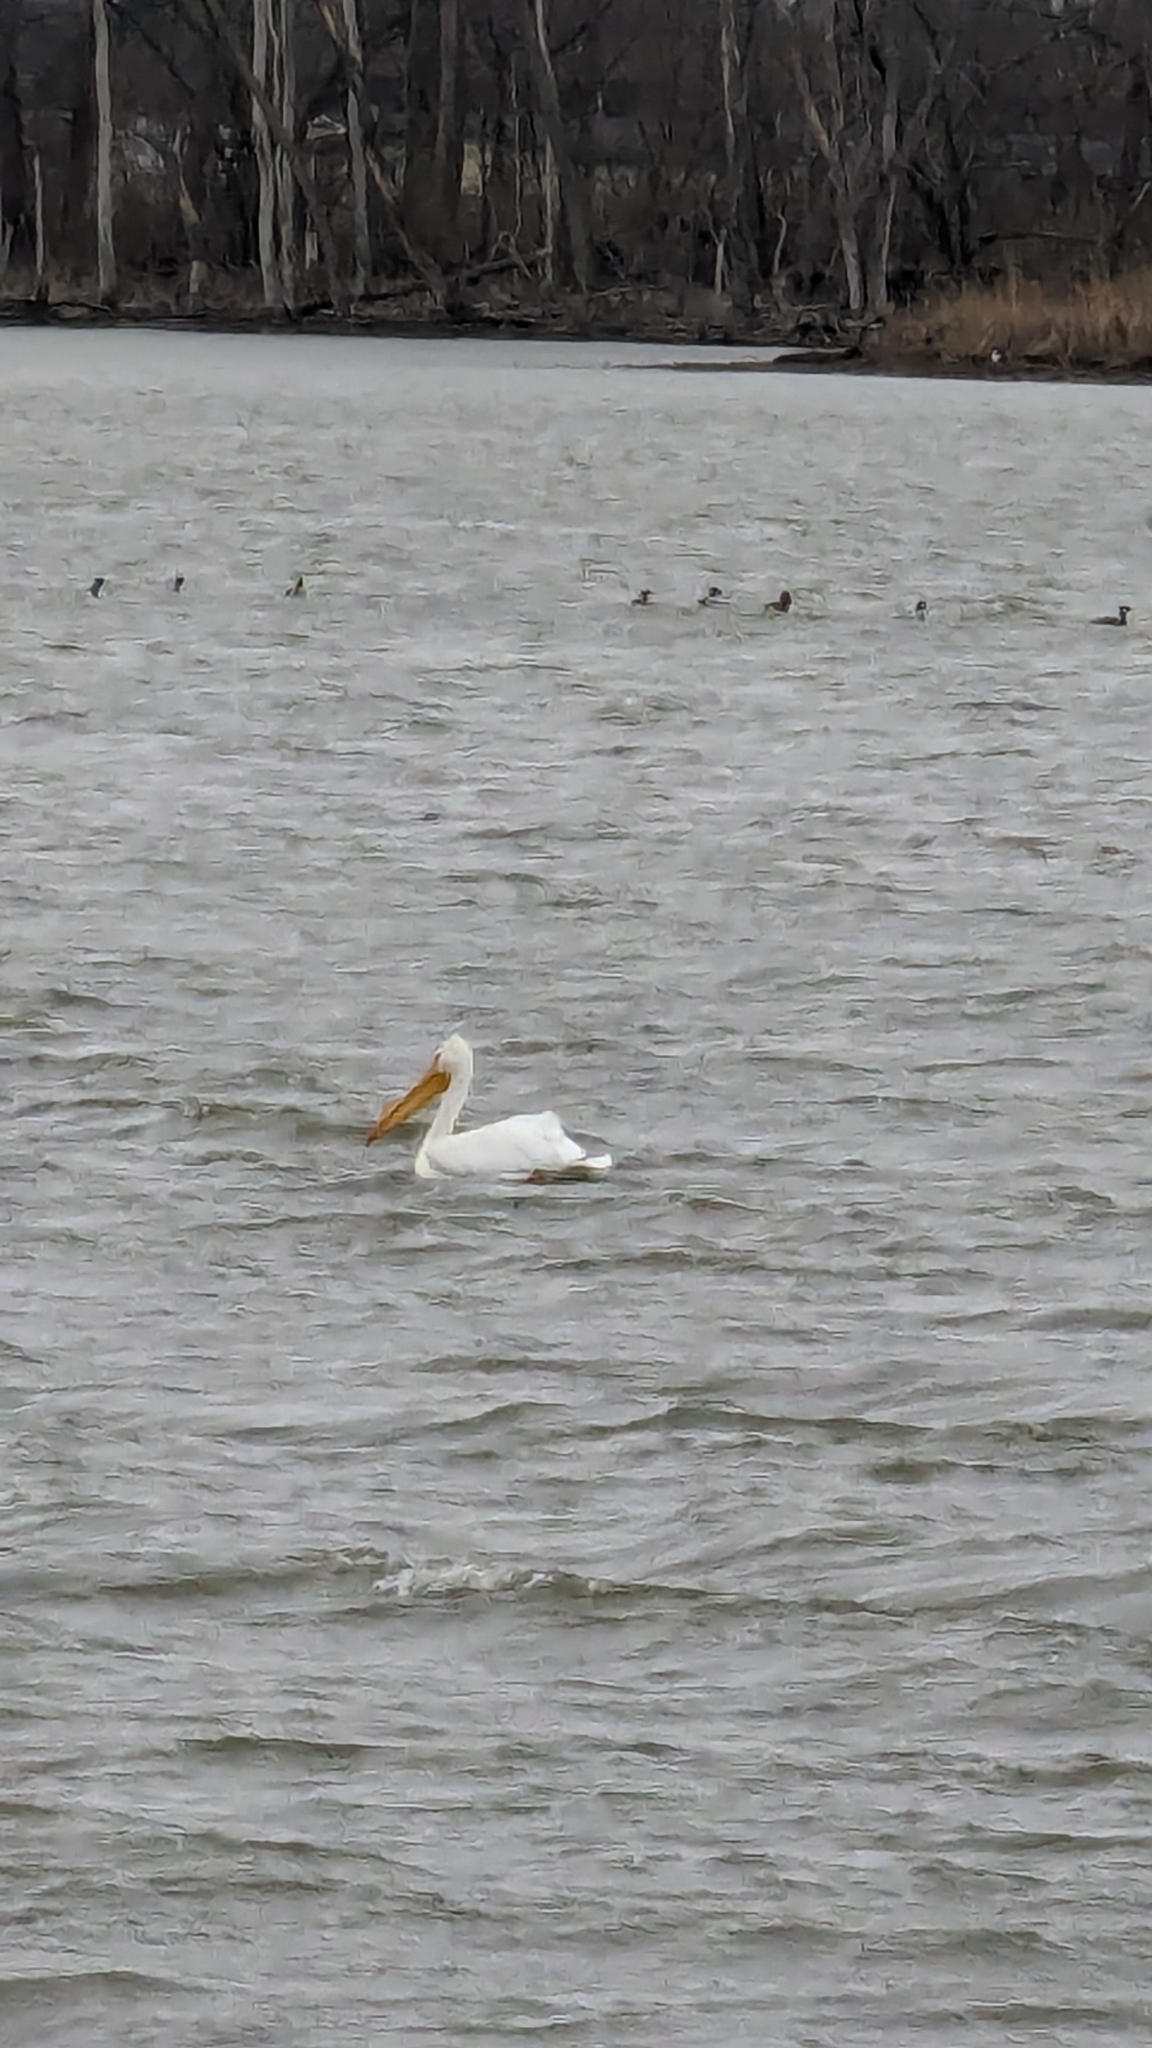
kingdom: Animalia
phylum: Chordata
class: Aves
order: Pelecaniformes
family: Pelecanidae
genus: Pelecanus
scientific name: Pelecanus erythrorhynchos
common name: American white pelican
